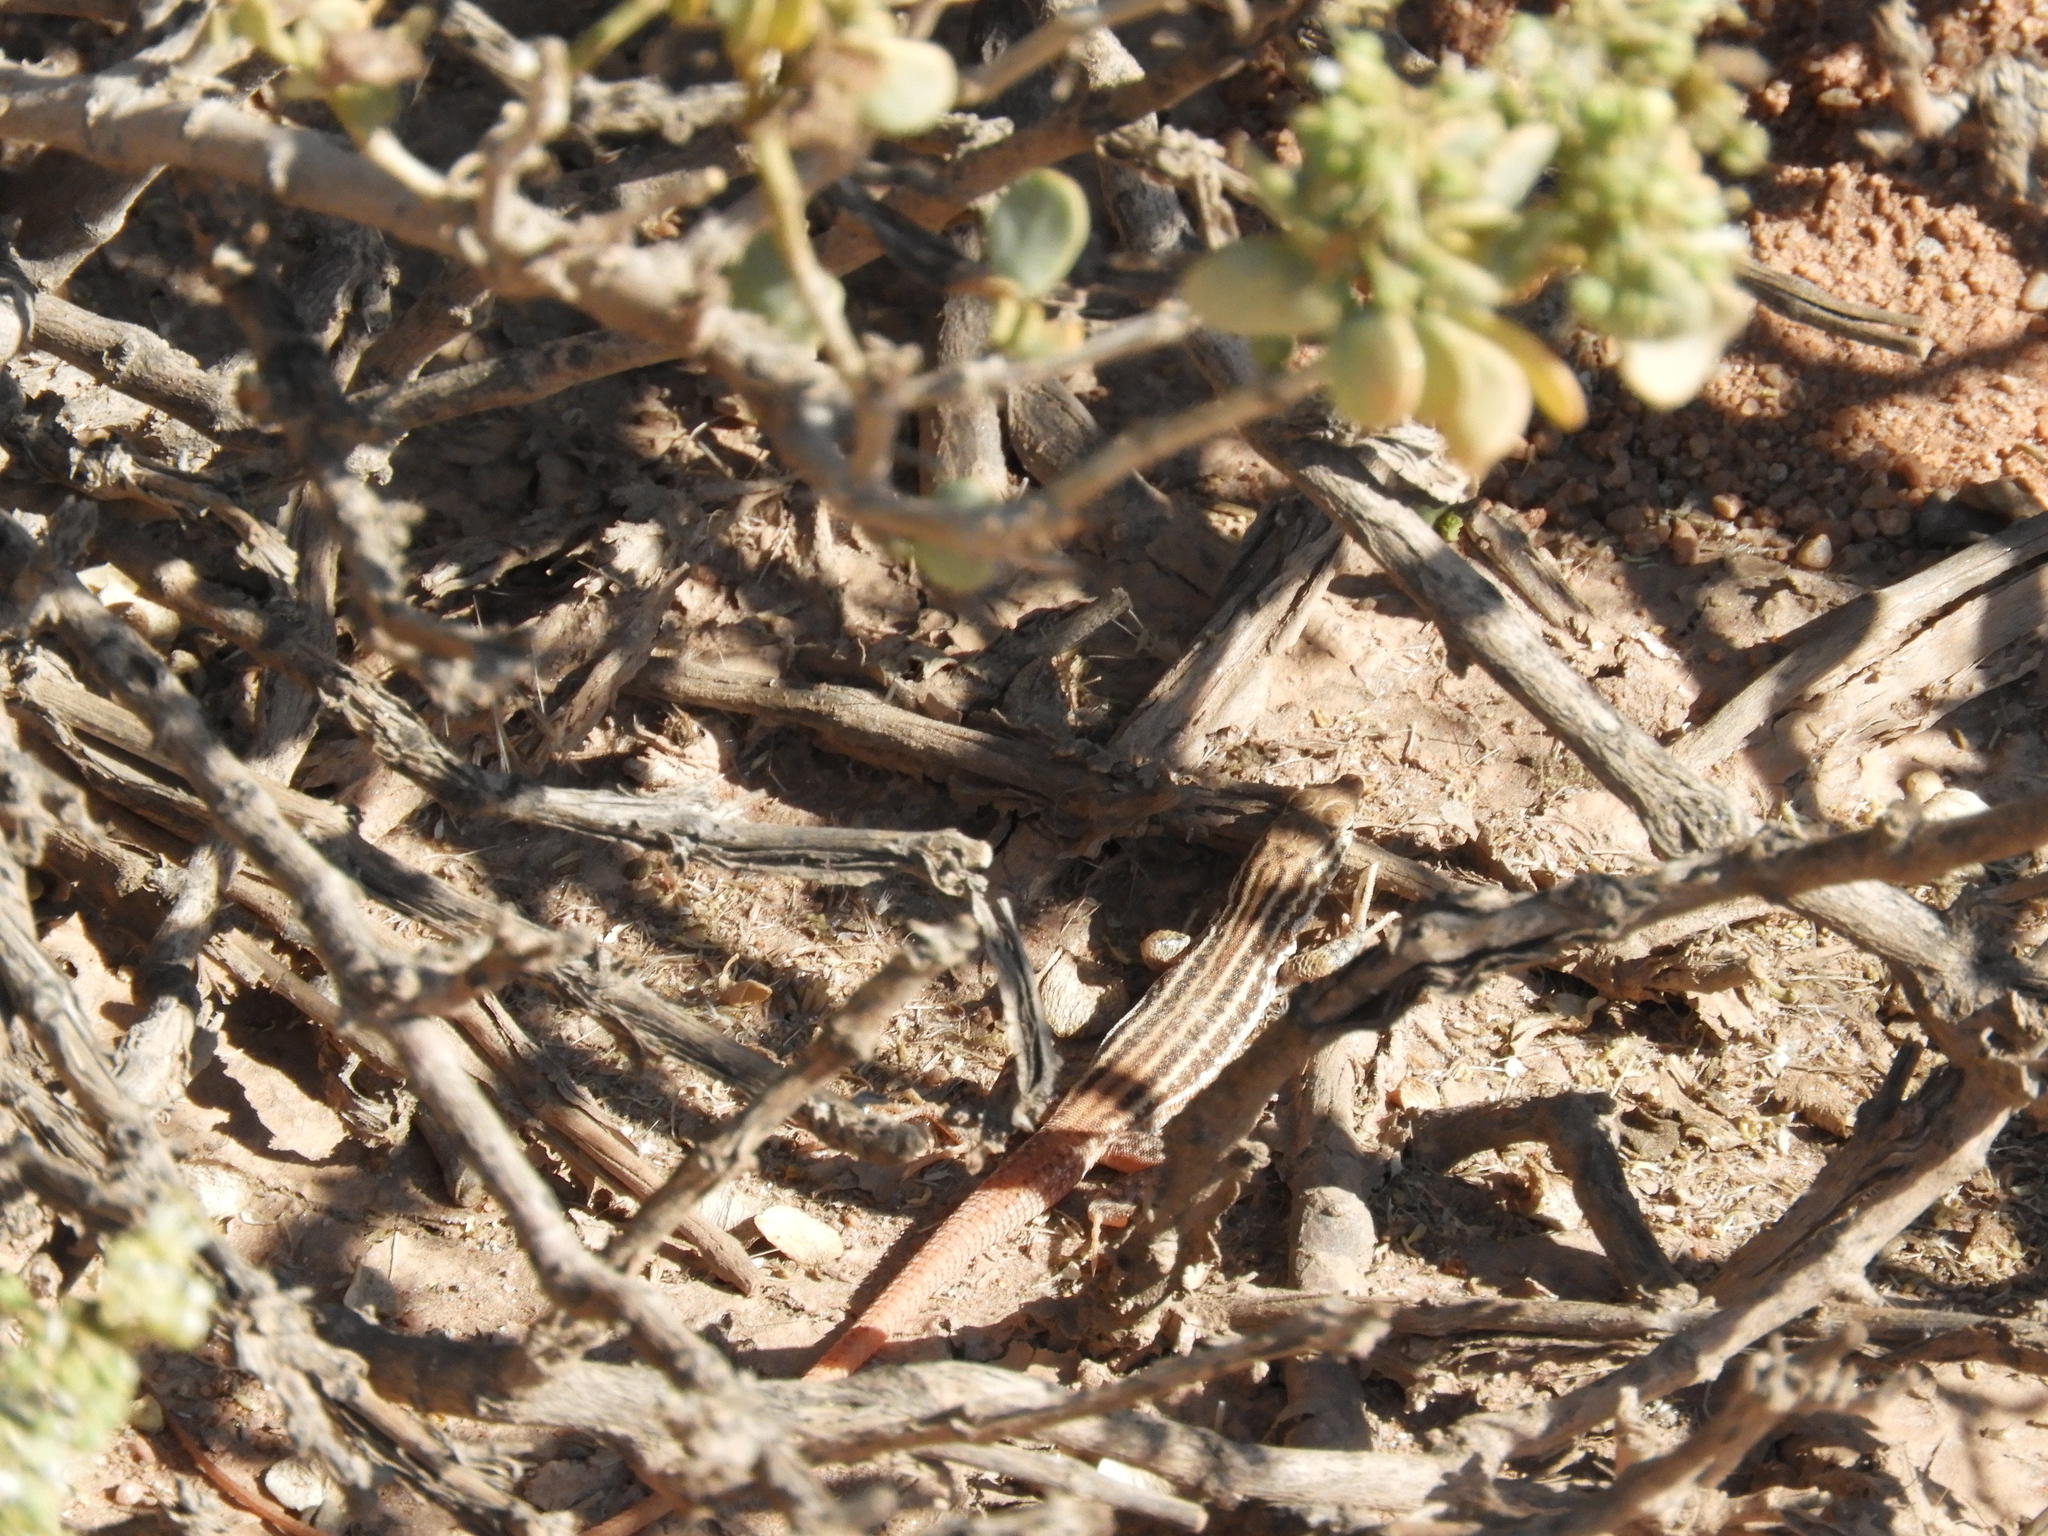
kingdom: Animalia
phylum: Chordata
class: Squamata
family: Lacertidae
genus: Pedioplanis
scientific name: Pedioplanis namaquensis
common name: Namaqua sand lizard
